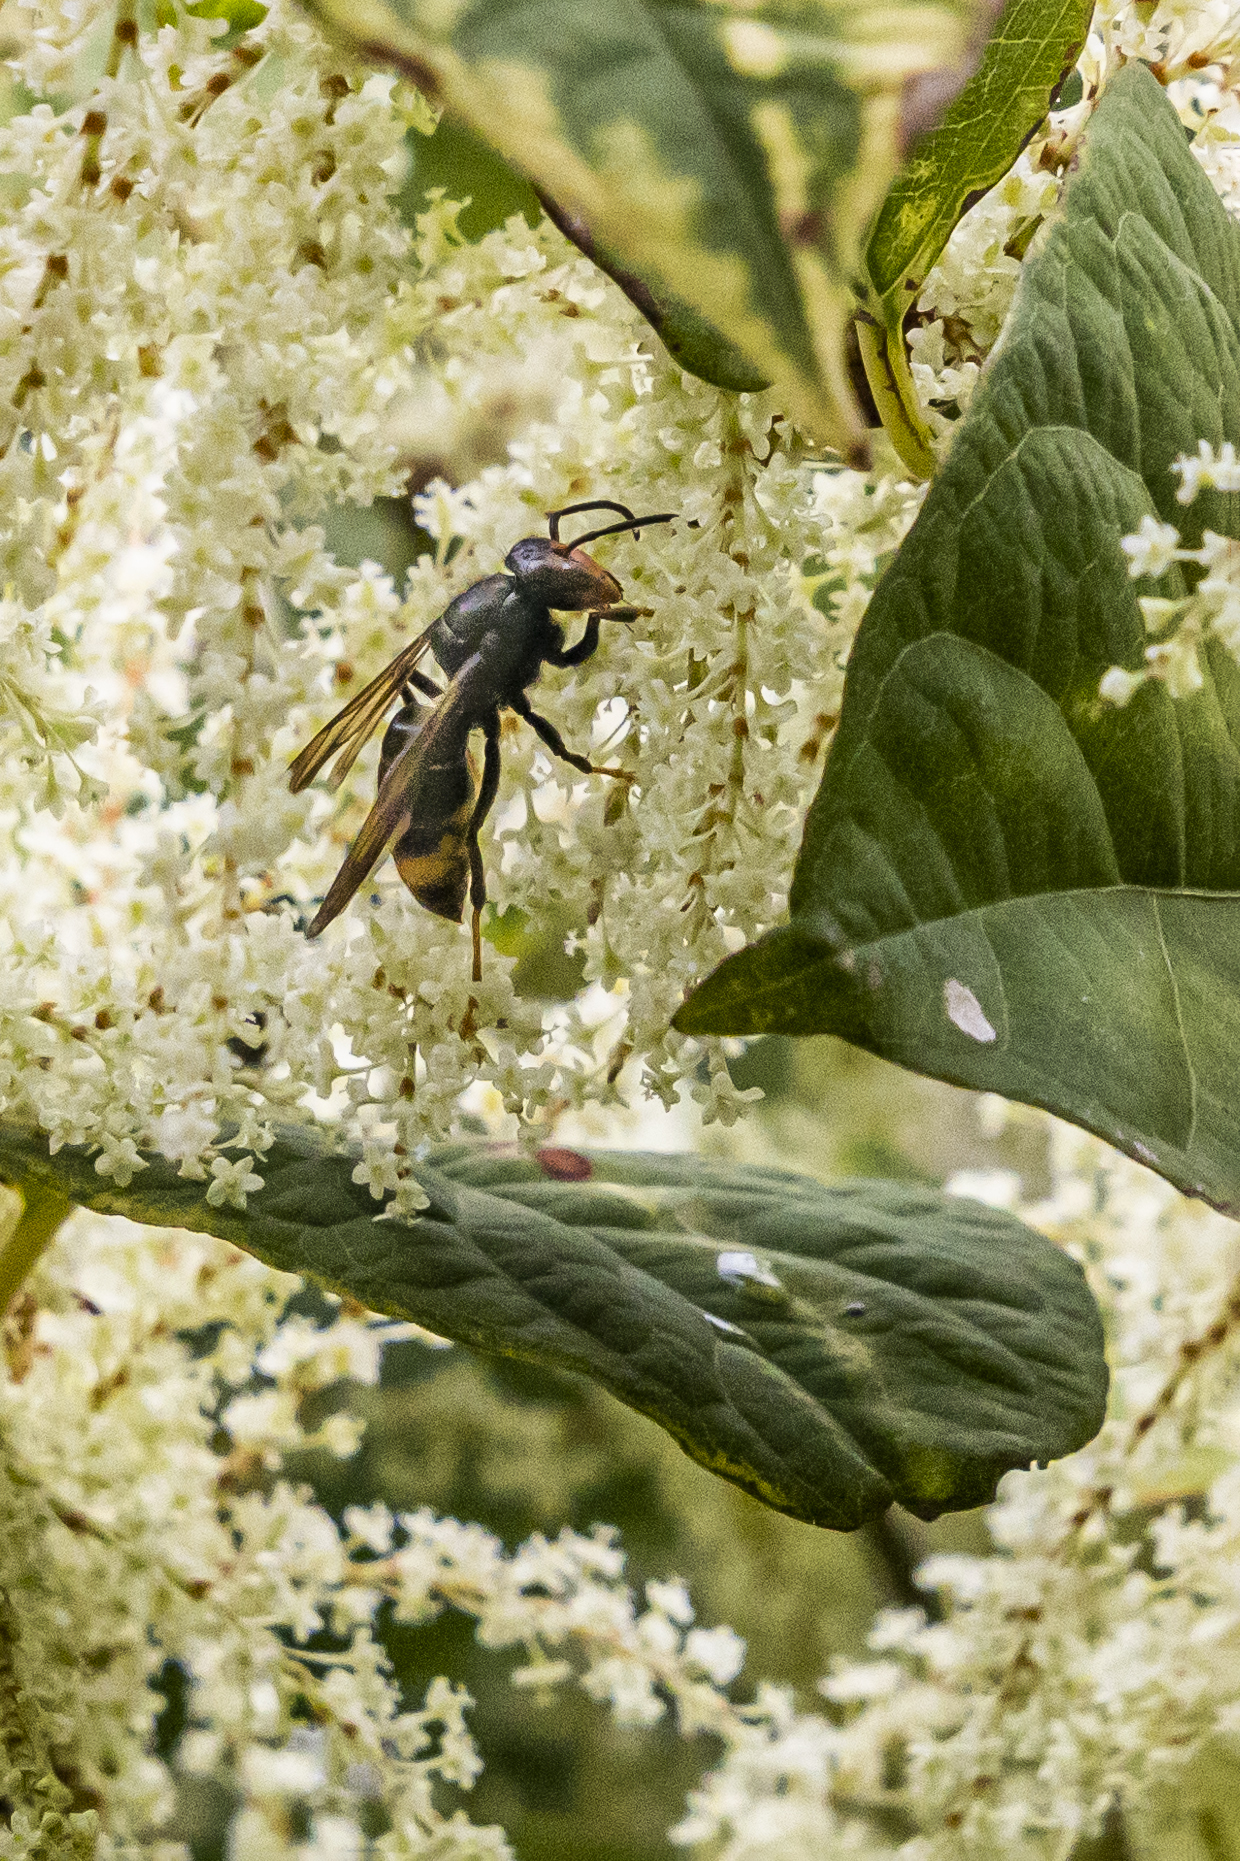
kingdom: Animalia
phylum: Arthropoda
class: Insecta
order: Hymenoptera
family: Vespidae
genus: Vespa
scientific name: Vespa velutina
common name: Asian hornet
